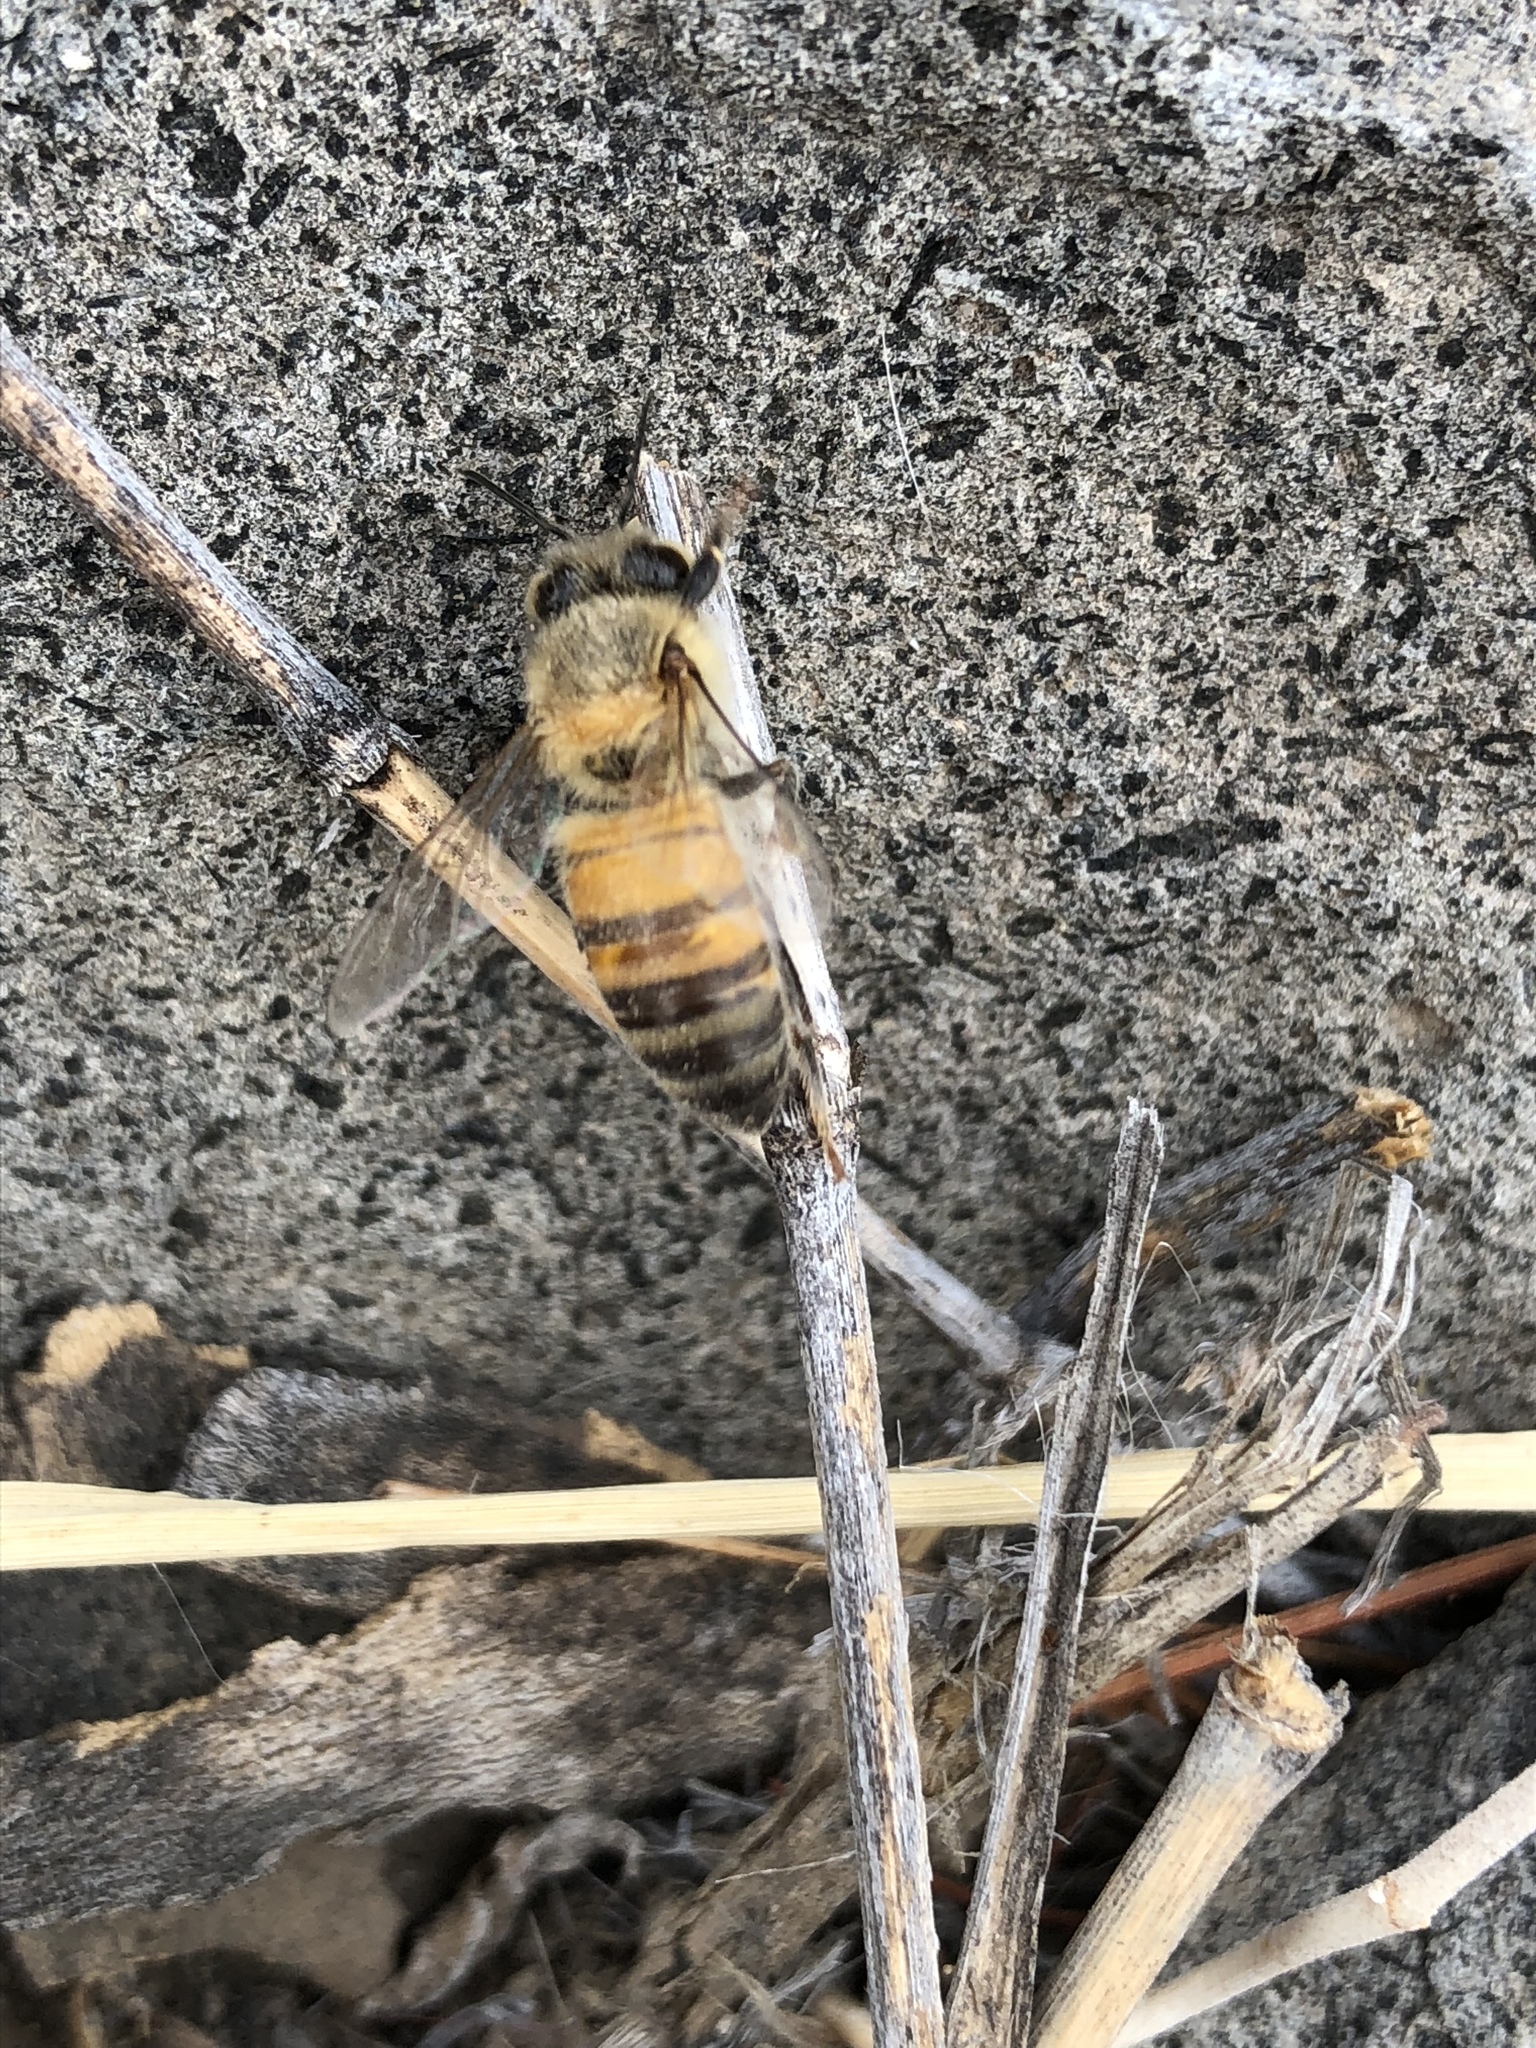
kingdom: Animalia
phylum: Arthropoda
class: Insecta
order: Hymenoptera
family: Apidae
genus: Apis
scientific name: Apis mellifera
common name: Honey bee
